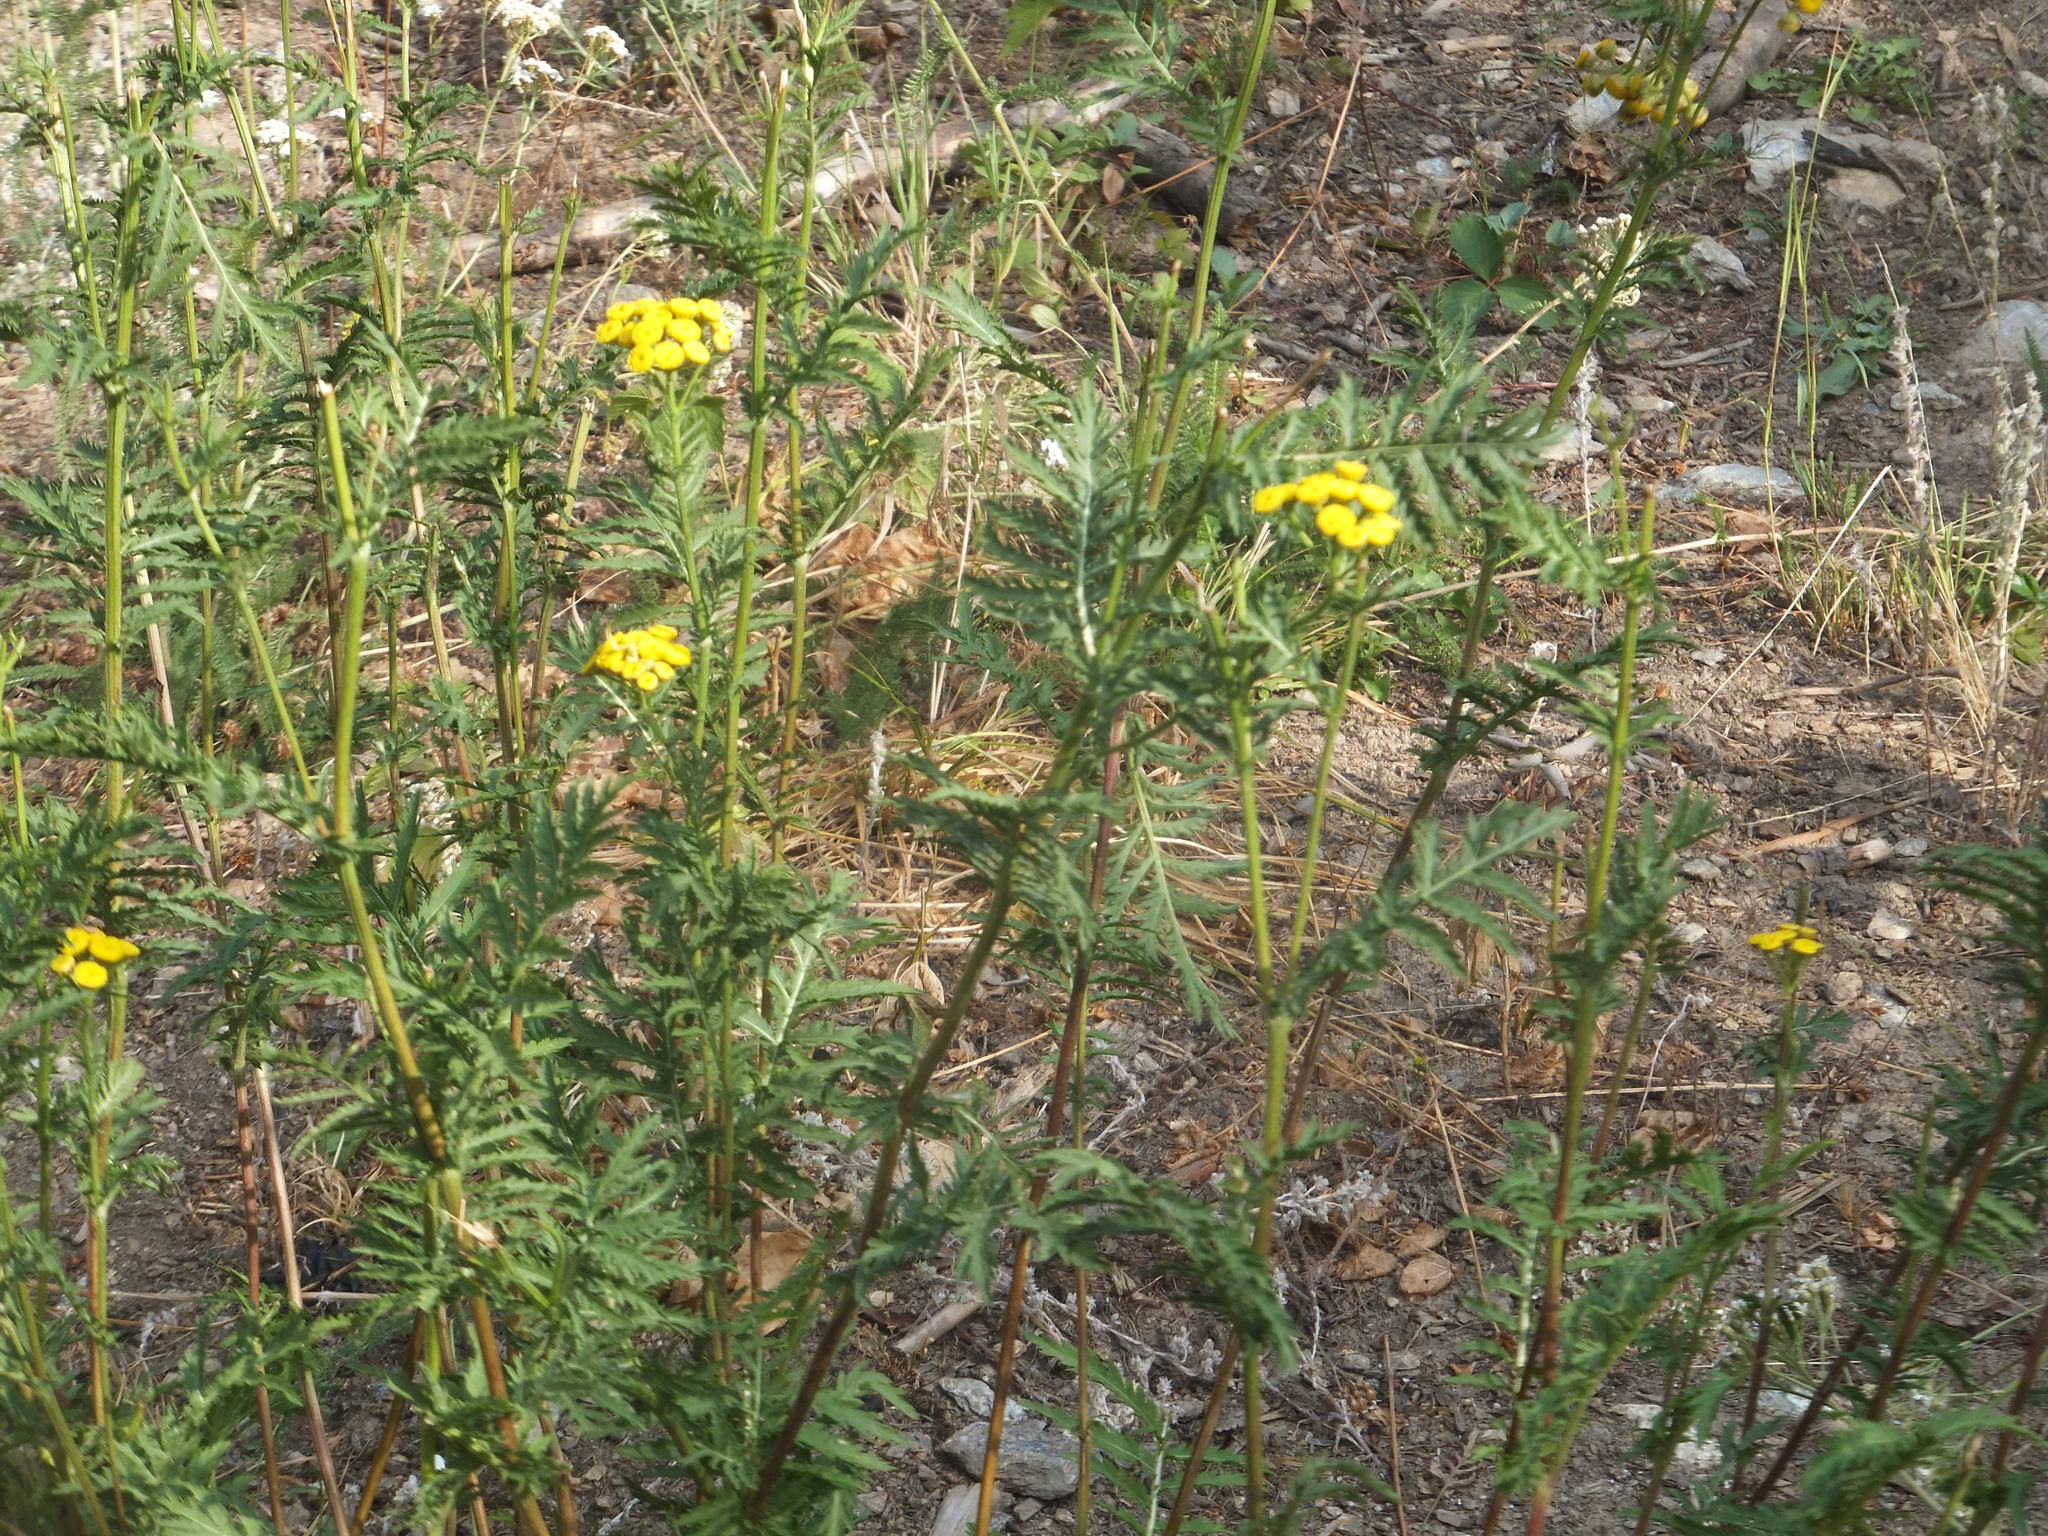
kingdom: Plantae
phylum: Tracheophyta
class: Magnoliopsida
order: Asterales
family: Asteraceae
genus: Tanacetum
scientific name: Tanacetum vulgare
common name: Common tansy
